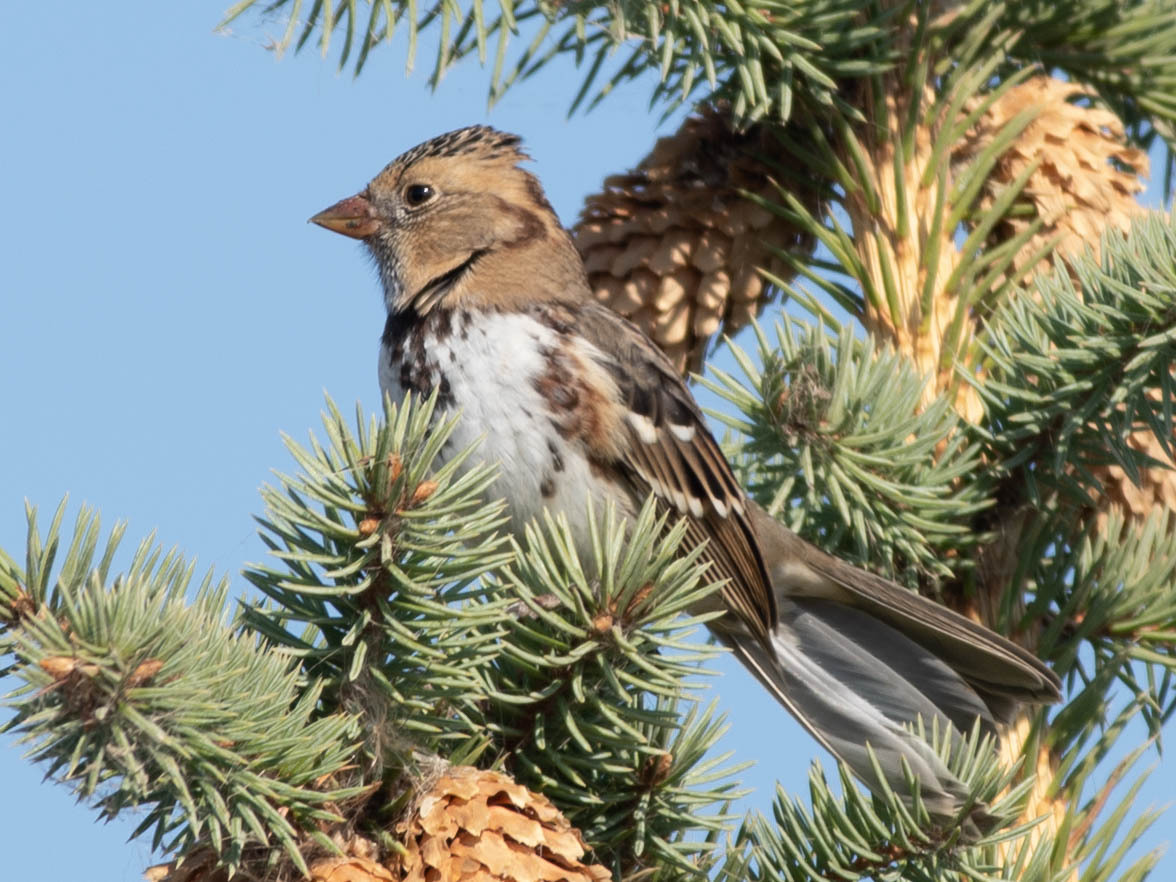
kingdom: Animalia
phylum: Chordata
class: Aves
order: Passeriformes
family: Passerellidae
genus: Zonotrichia
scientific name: Zonotrichia querula
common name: Harris's sparrow
